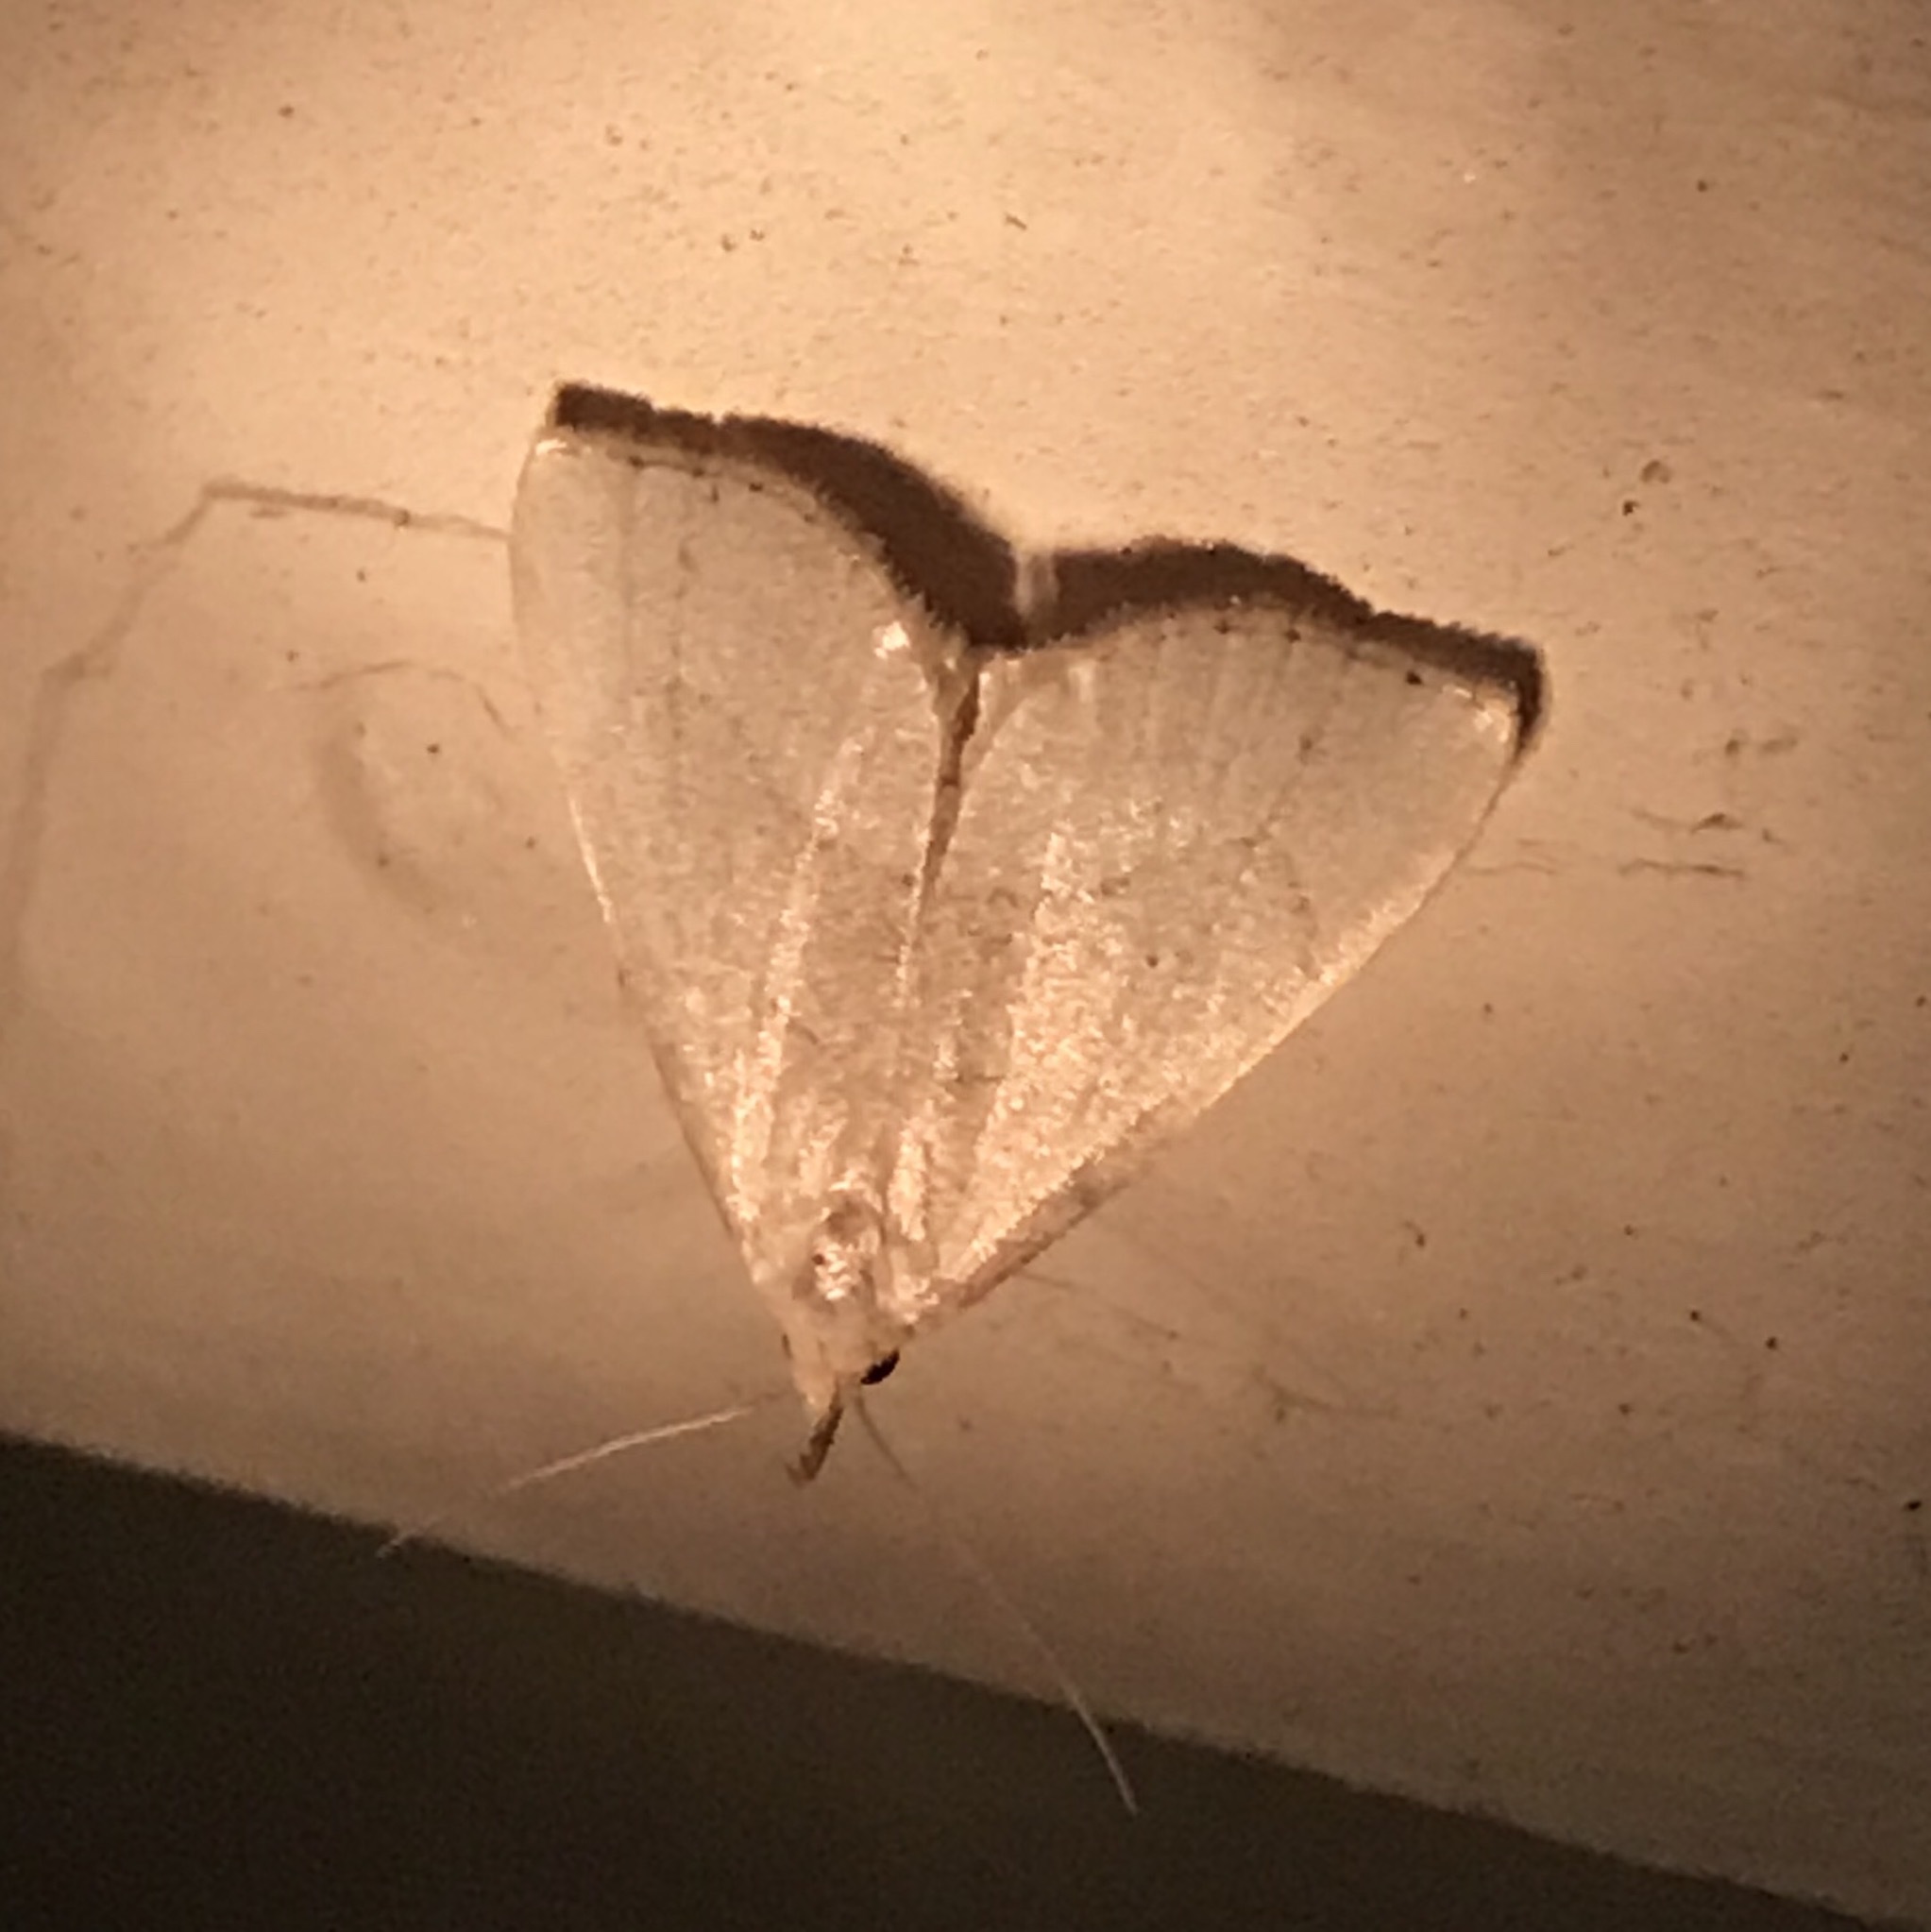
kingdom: Animalia
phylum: Arthropoda
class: Insecta
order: Lepidoptera
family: Erebidae
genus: Macrochilo
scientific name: Macrochilo litophora
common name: Brown-lined owlet
